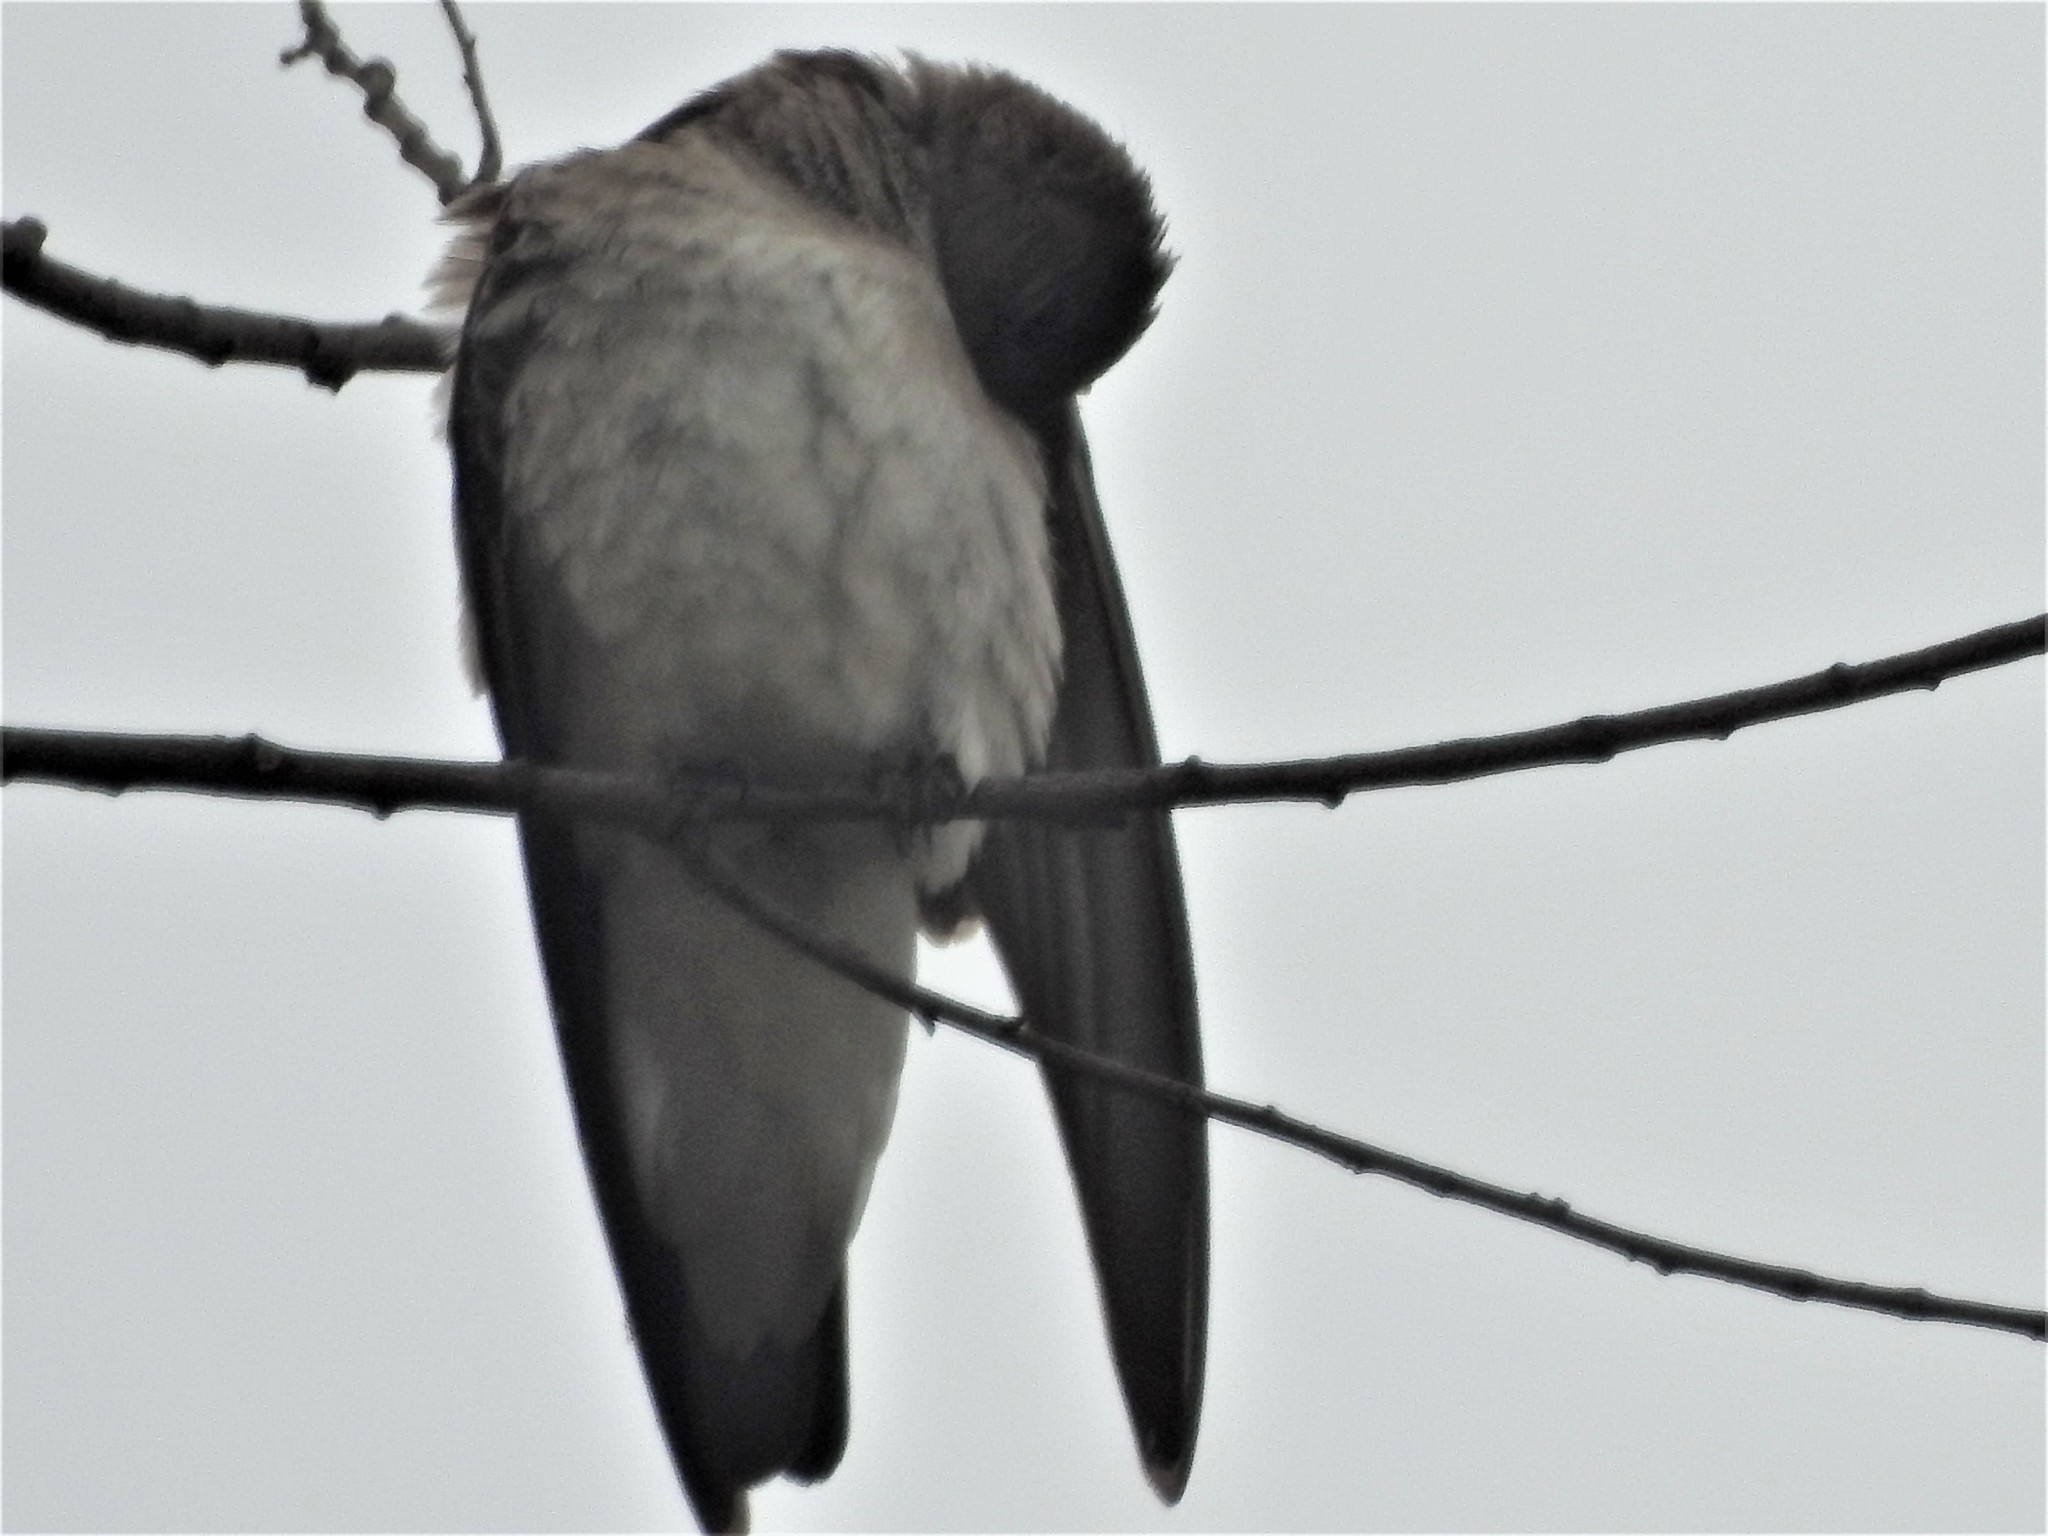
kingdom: Animalia
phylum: Chordata
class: Aves
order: Passeriformes
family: Hirundinidae
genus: Stelgidopteryx
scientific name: Stelgidopteryx serripennis
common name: Northern rough-winged swallow
